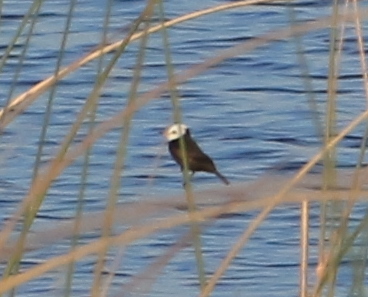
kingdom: Animalia
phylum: Chordata
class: Aves
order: Passeriformes
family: Tyrannidae
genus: Arundinicola
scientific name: Arundinicola leucocephala
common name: White-headed marsh tyrant
